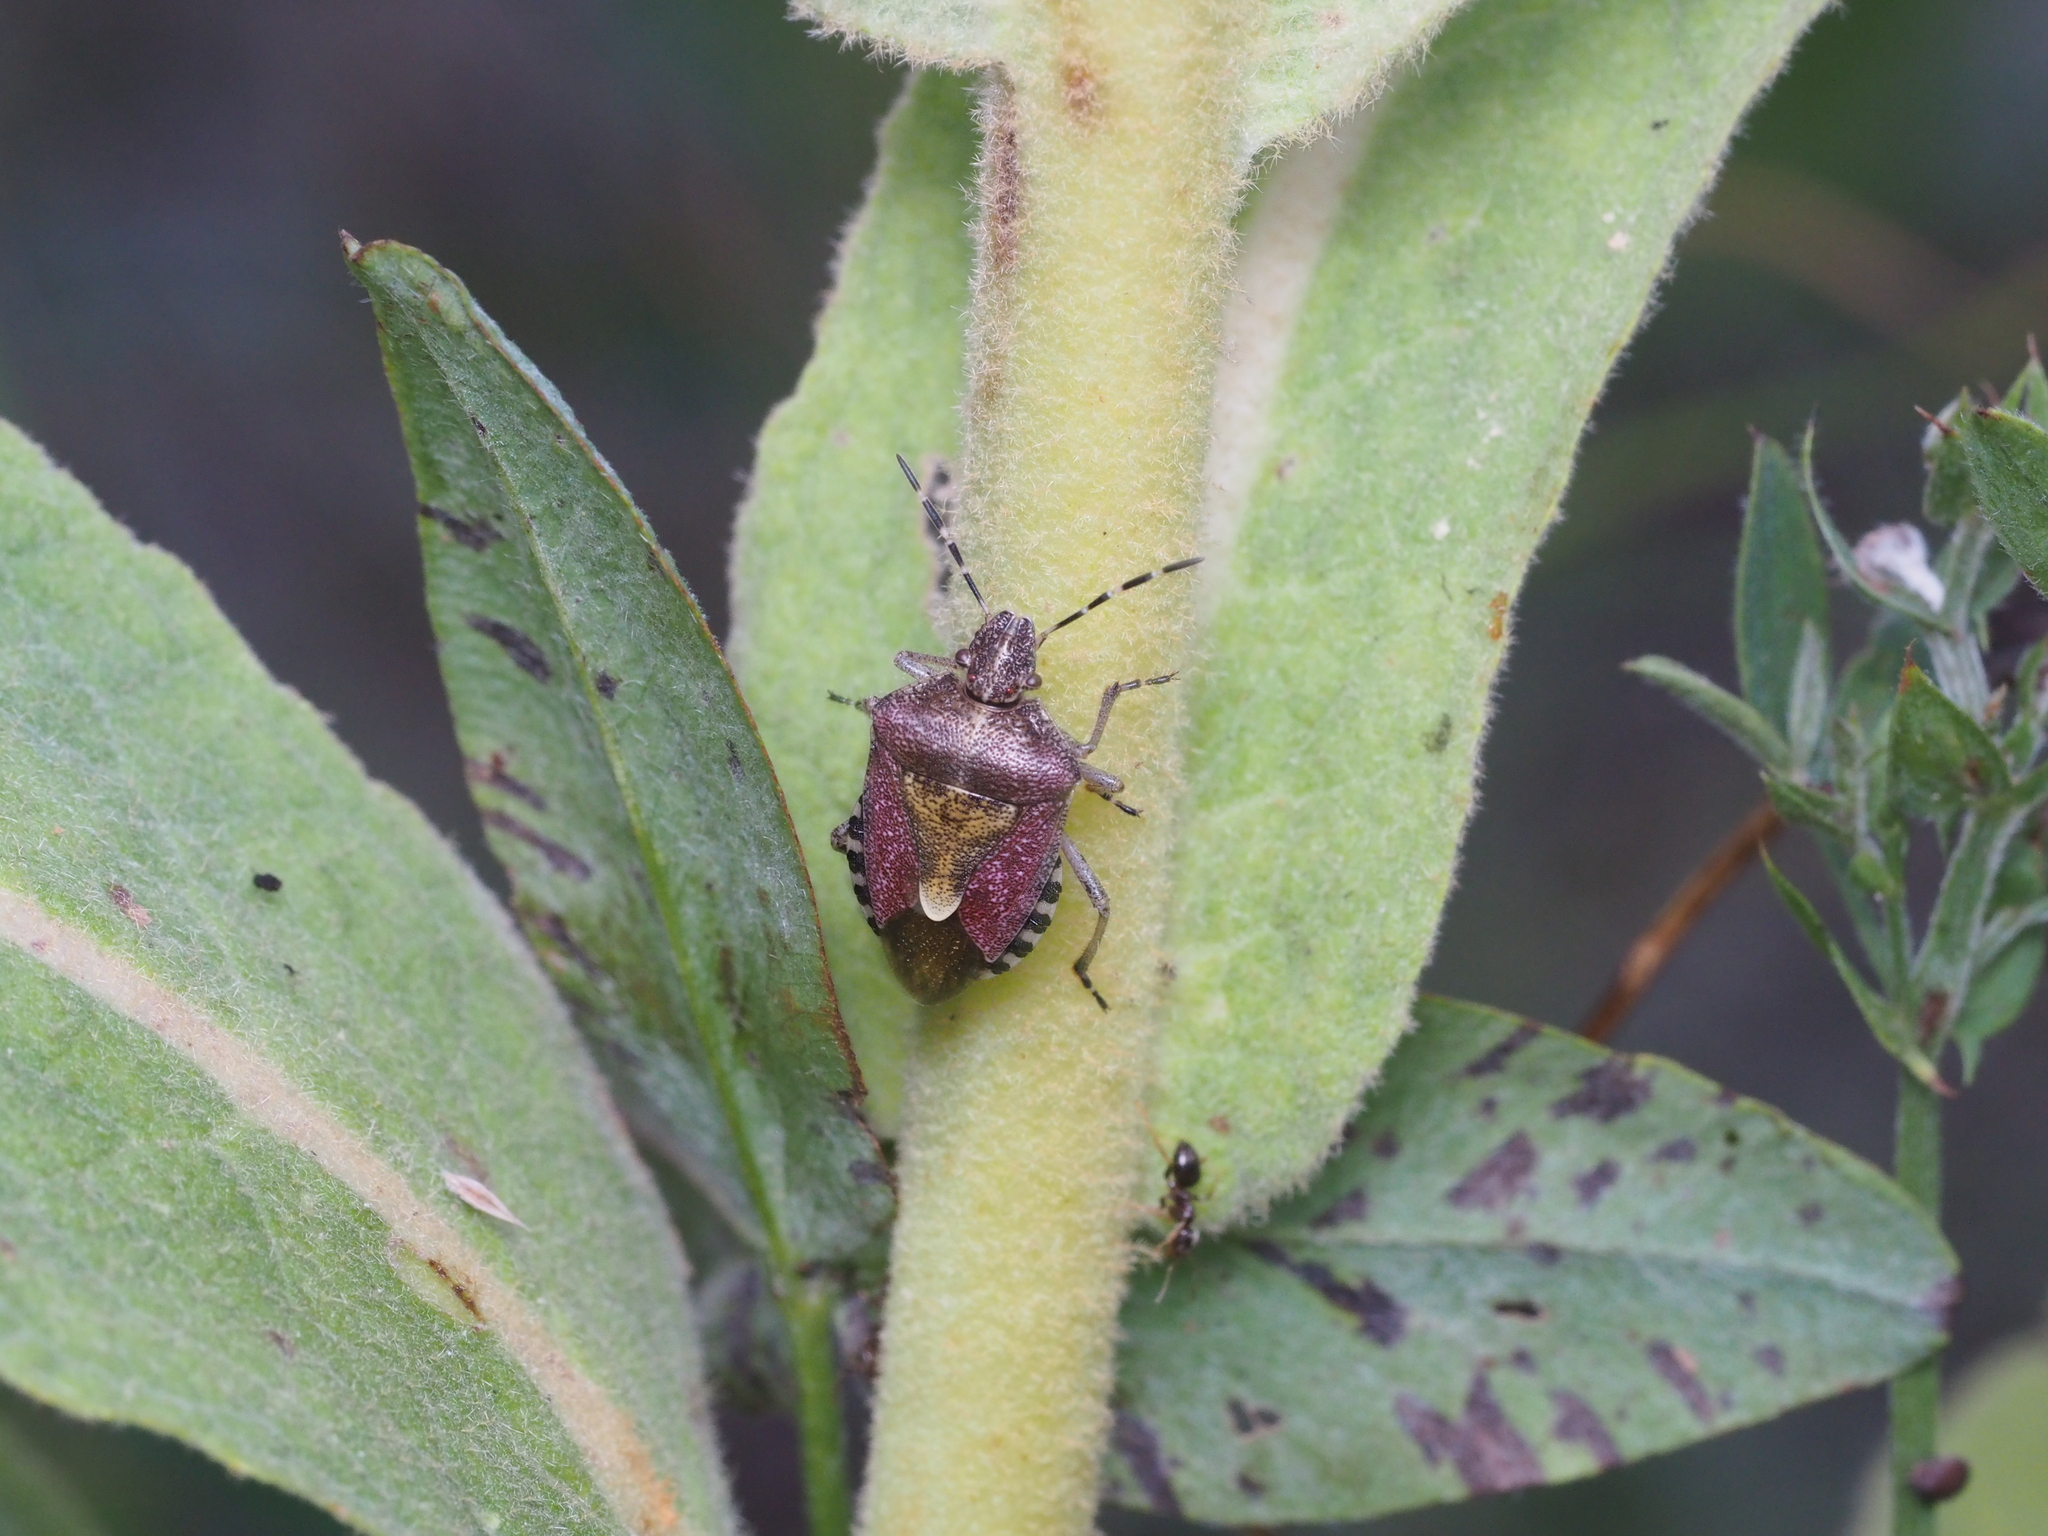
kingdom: Animalia
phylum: Arthropoda
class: Insecta
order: Hemiptera
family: Pentatomidae
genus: Dolycoris
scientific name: Dolycoris baccarum
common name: Sloe bug
